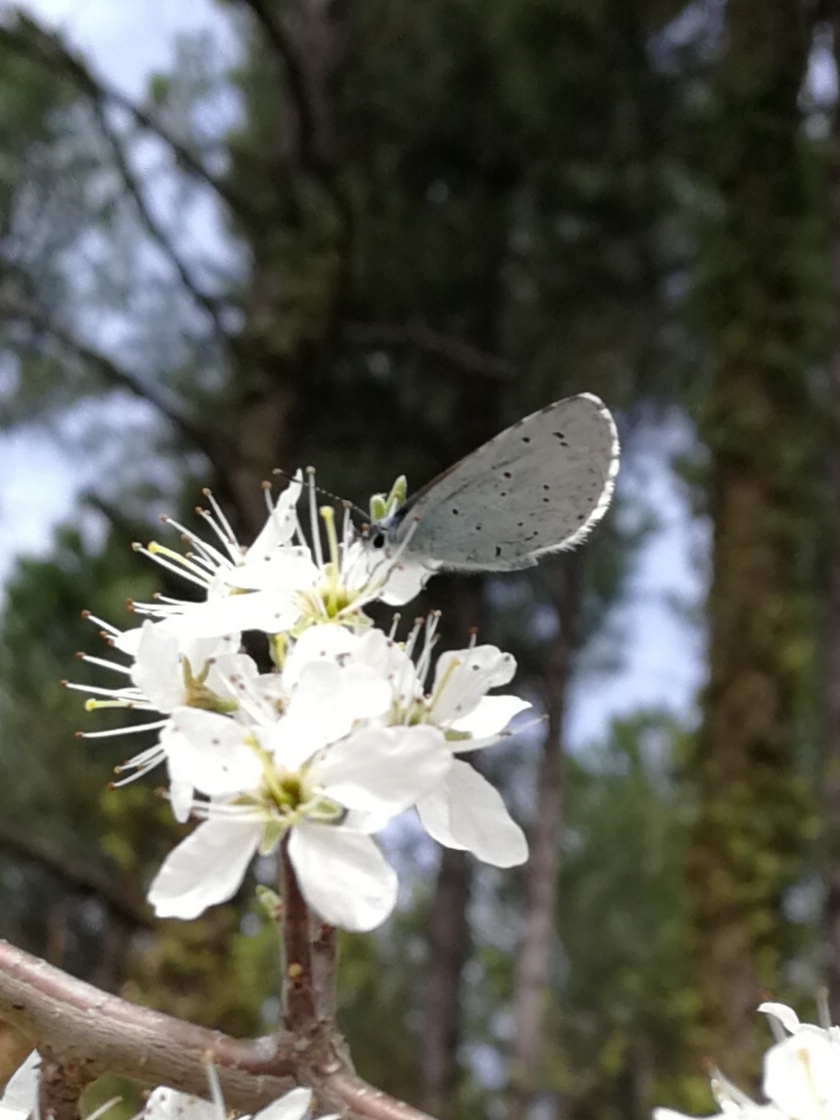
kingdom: Animalia
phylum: Arthropoda
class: Insecta
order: Lepidoptera
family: Lycaenidae
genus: Celastrina
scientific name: Celastrina argiolus
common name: Holly blue
